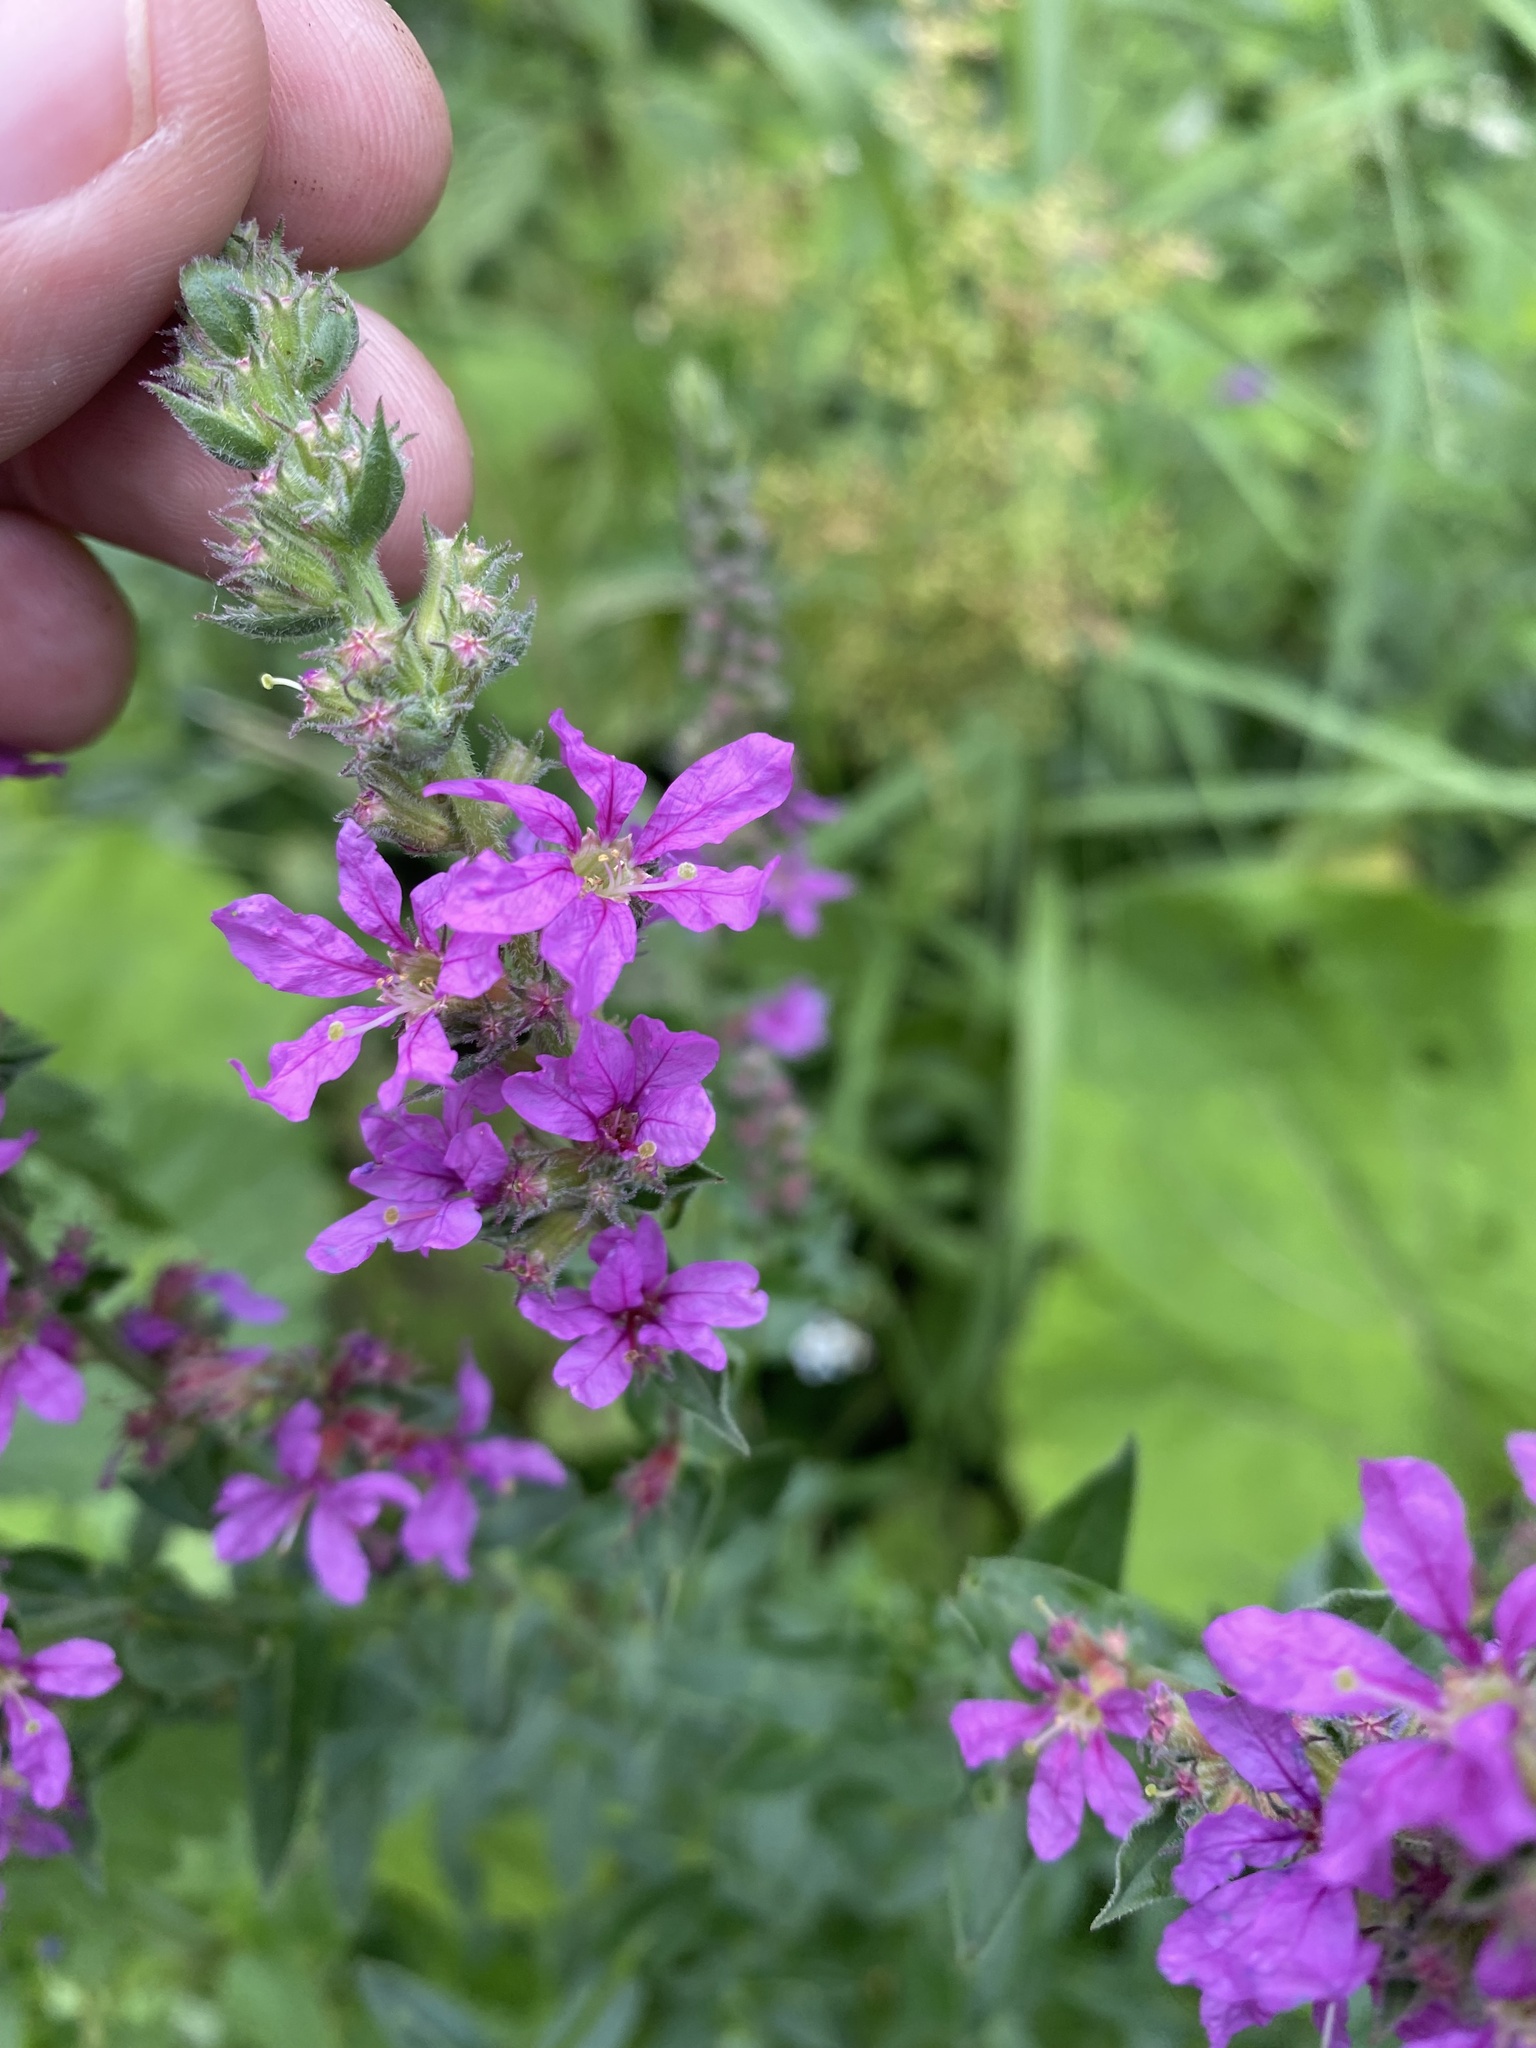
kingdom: Plantae
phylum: Tracheophyta
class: Magnoliopsida
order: Myrtales
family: Lythraceae
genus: Lythrum
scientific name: Lythrum salicaria
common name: Purple loosestrife
